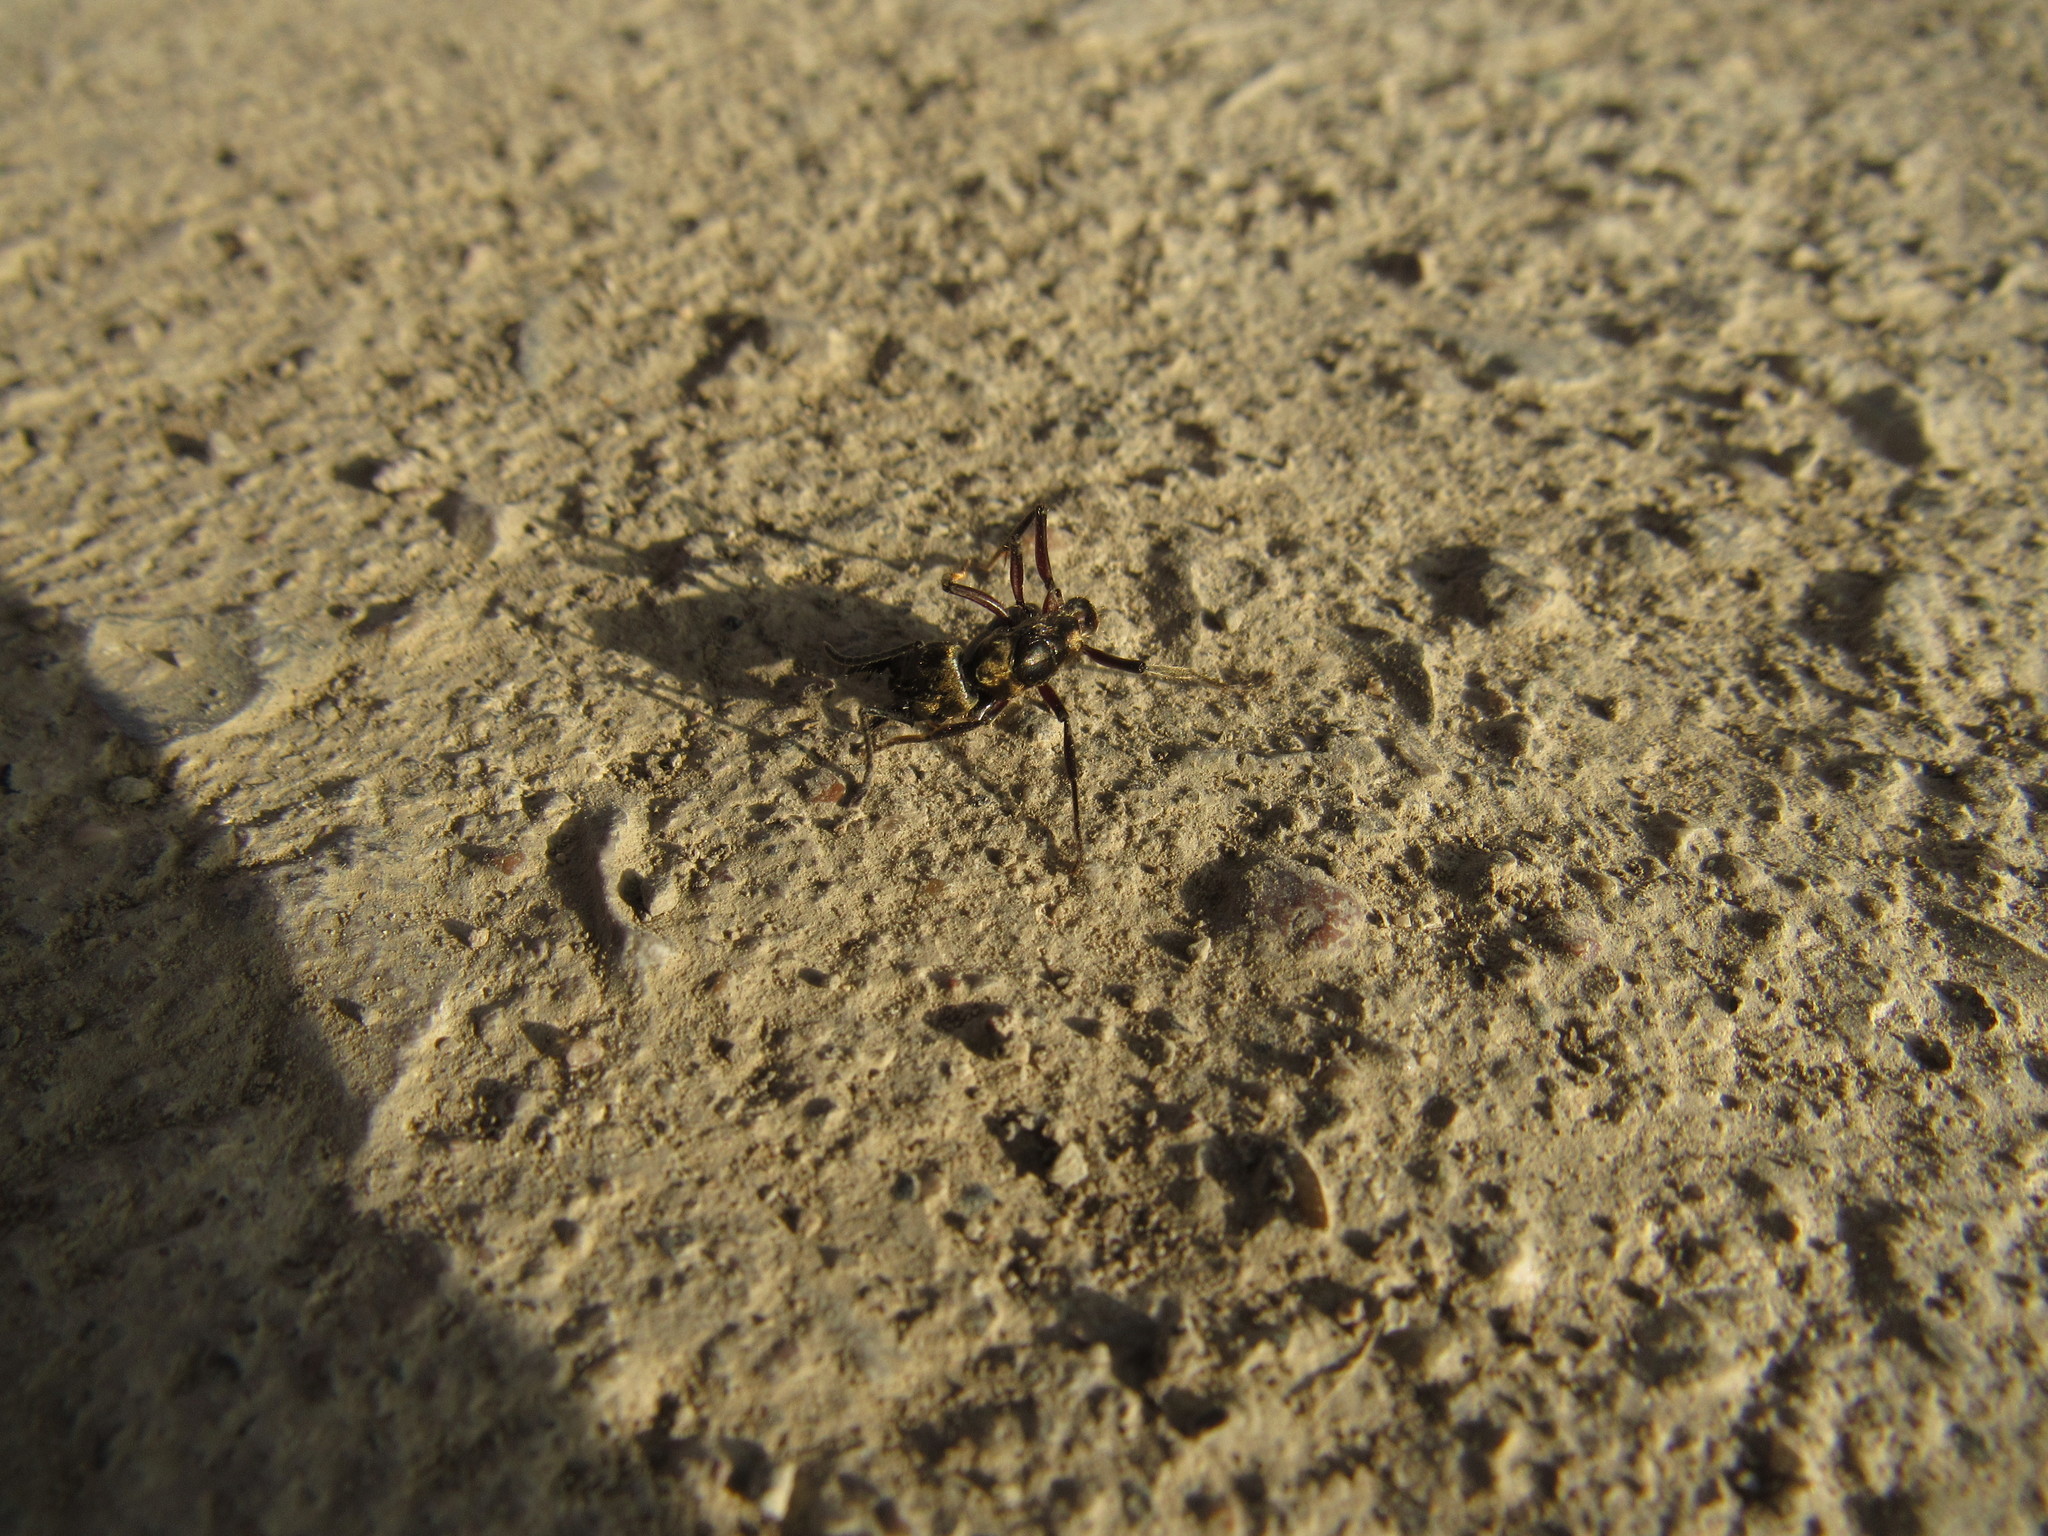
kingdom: Animalia
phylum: Arthropoda
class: Insecta
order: Hymenoptera
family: Formicidae
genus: Pachycondyla
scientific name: Pachycondyla villosa
